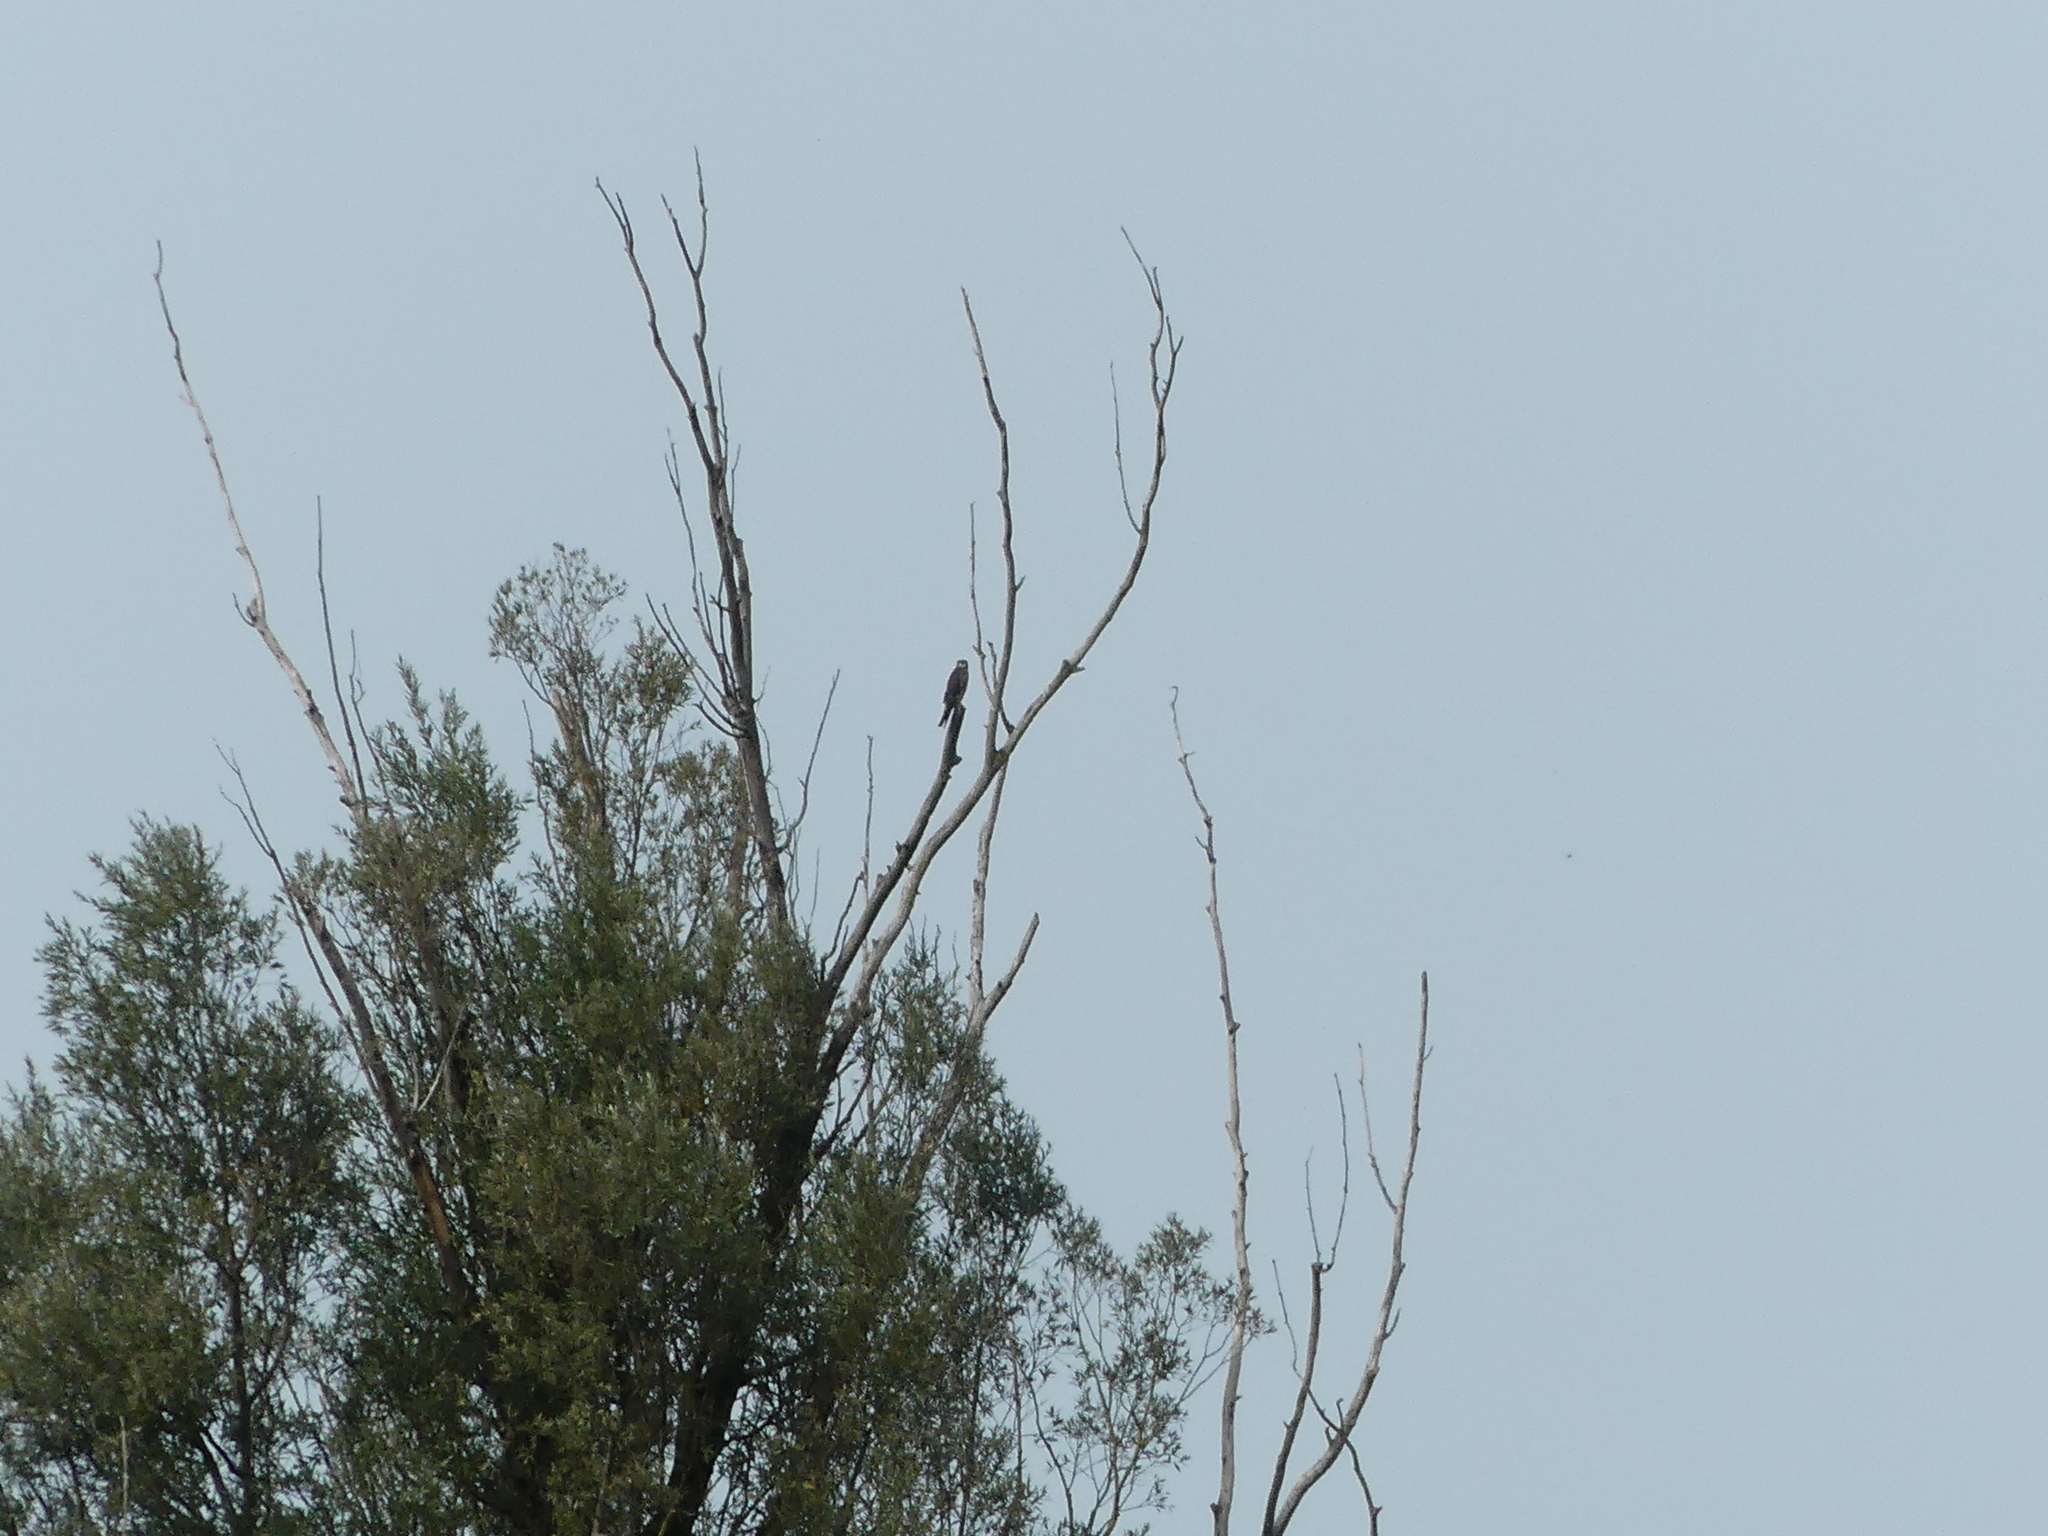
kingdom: Animalia
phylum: Chordata
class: Aves
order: Falconiformes
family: Falconidae
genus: Falco
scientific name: Falco subbuteo
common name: Eurasian hobby
